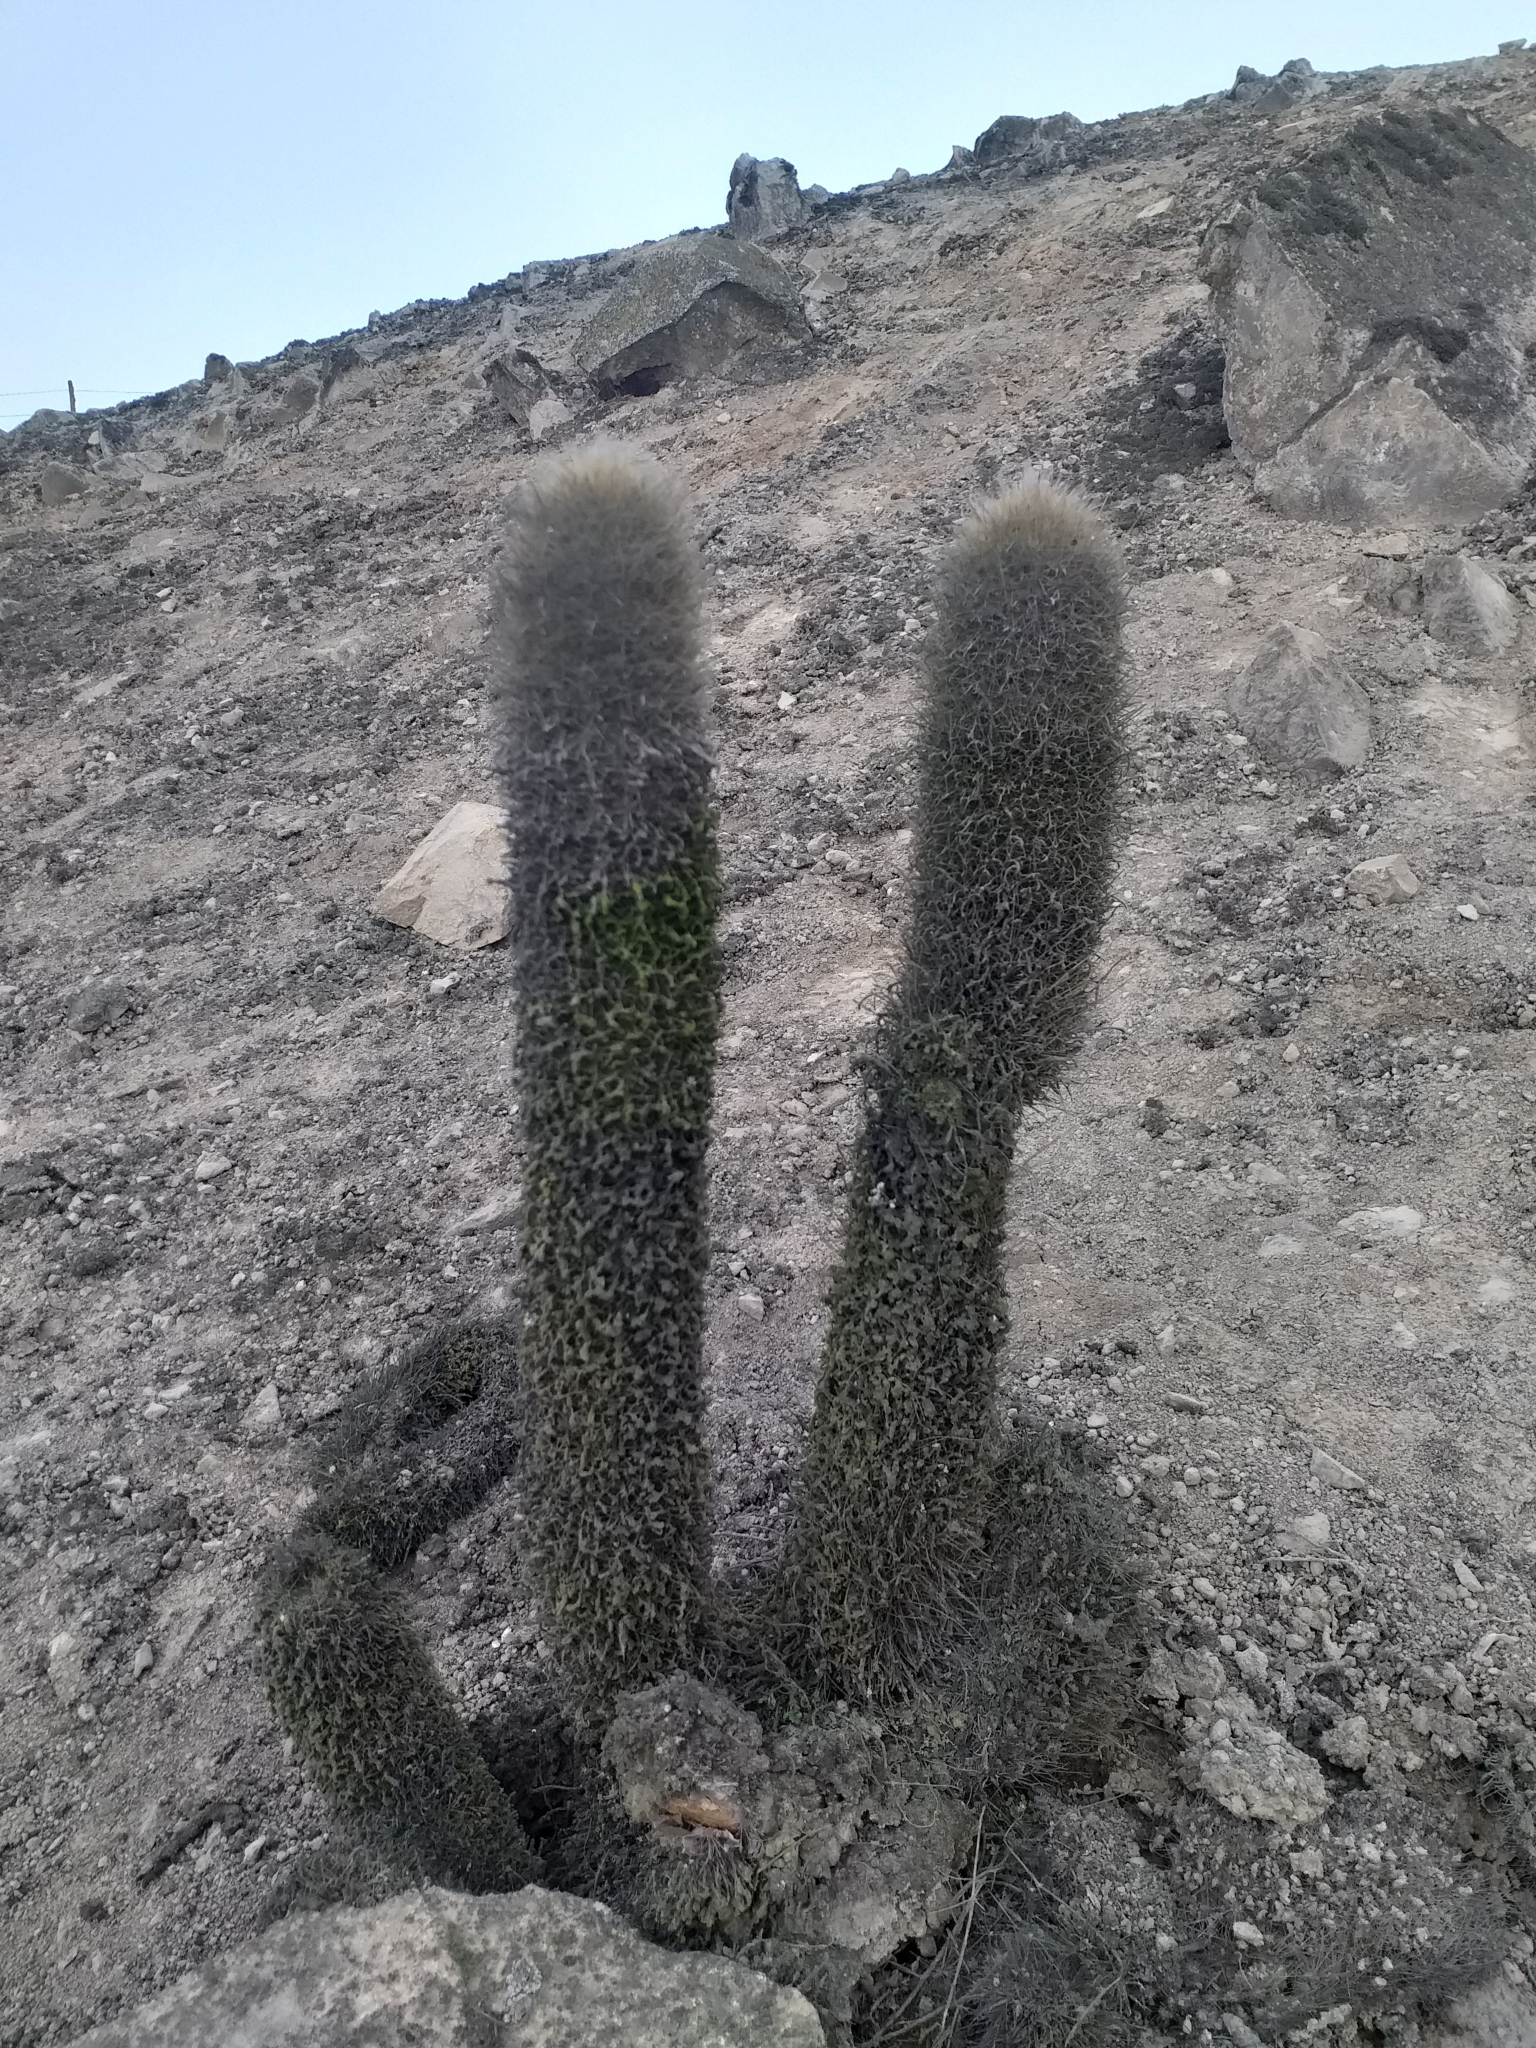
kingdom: Plantae
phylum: Tracheophyta
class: Magnoliopsida
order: Caryophyllales
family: Cactaceae
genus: Haageocereus
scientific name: Haageocereus pseudomelanostele
